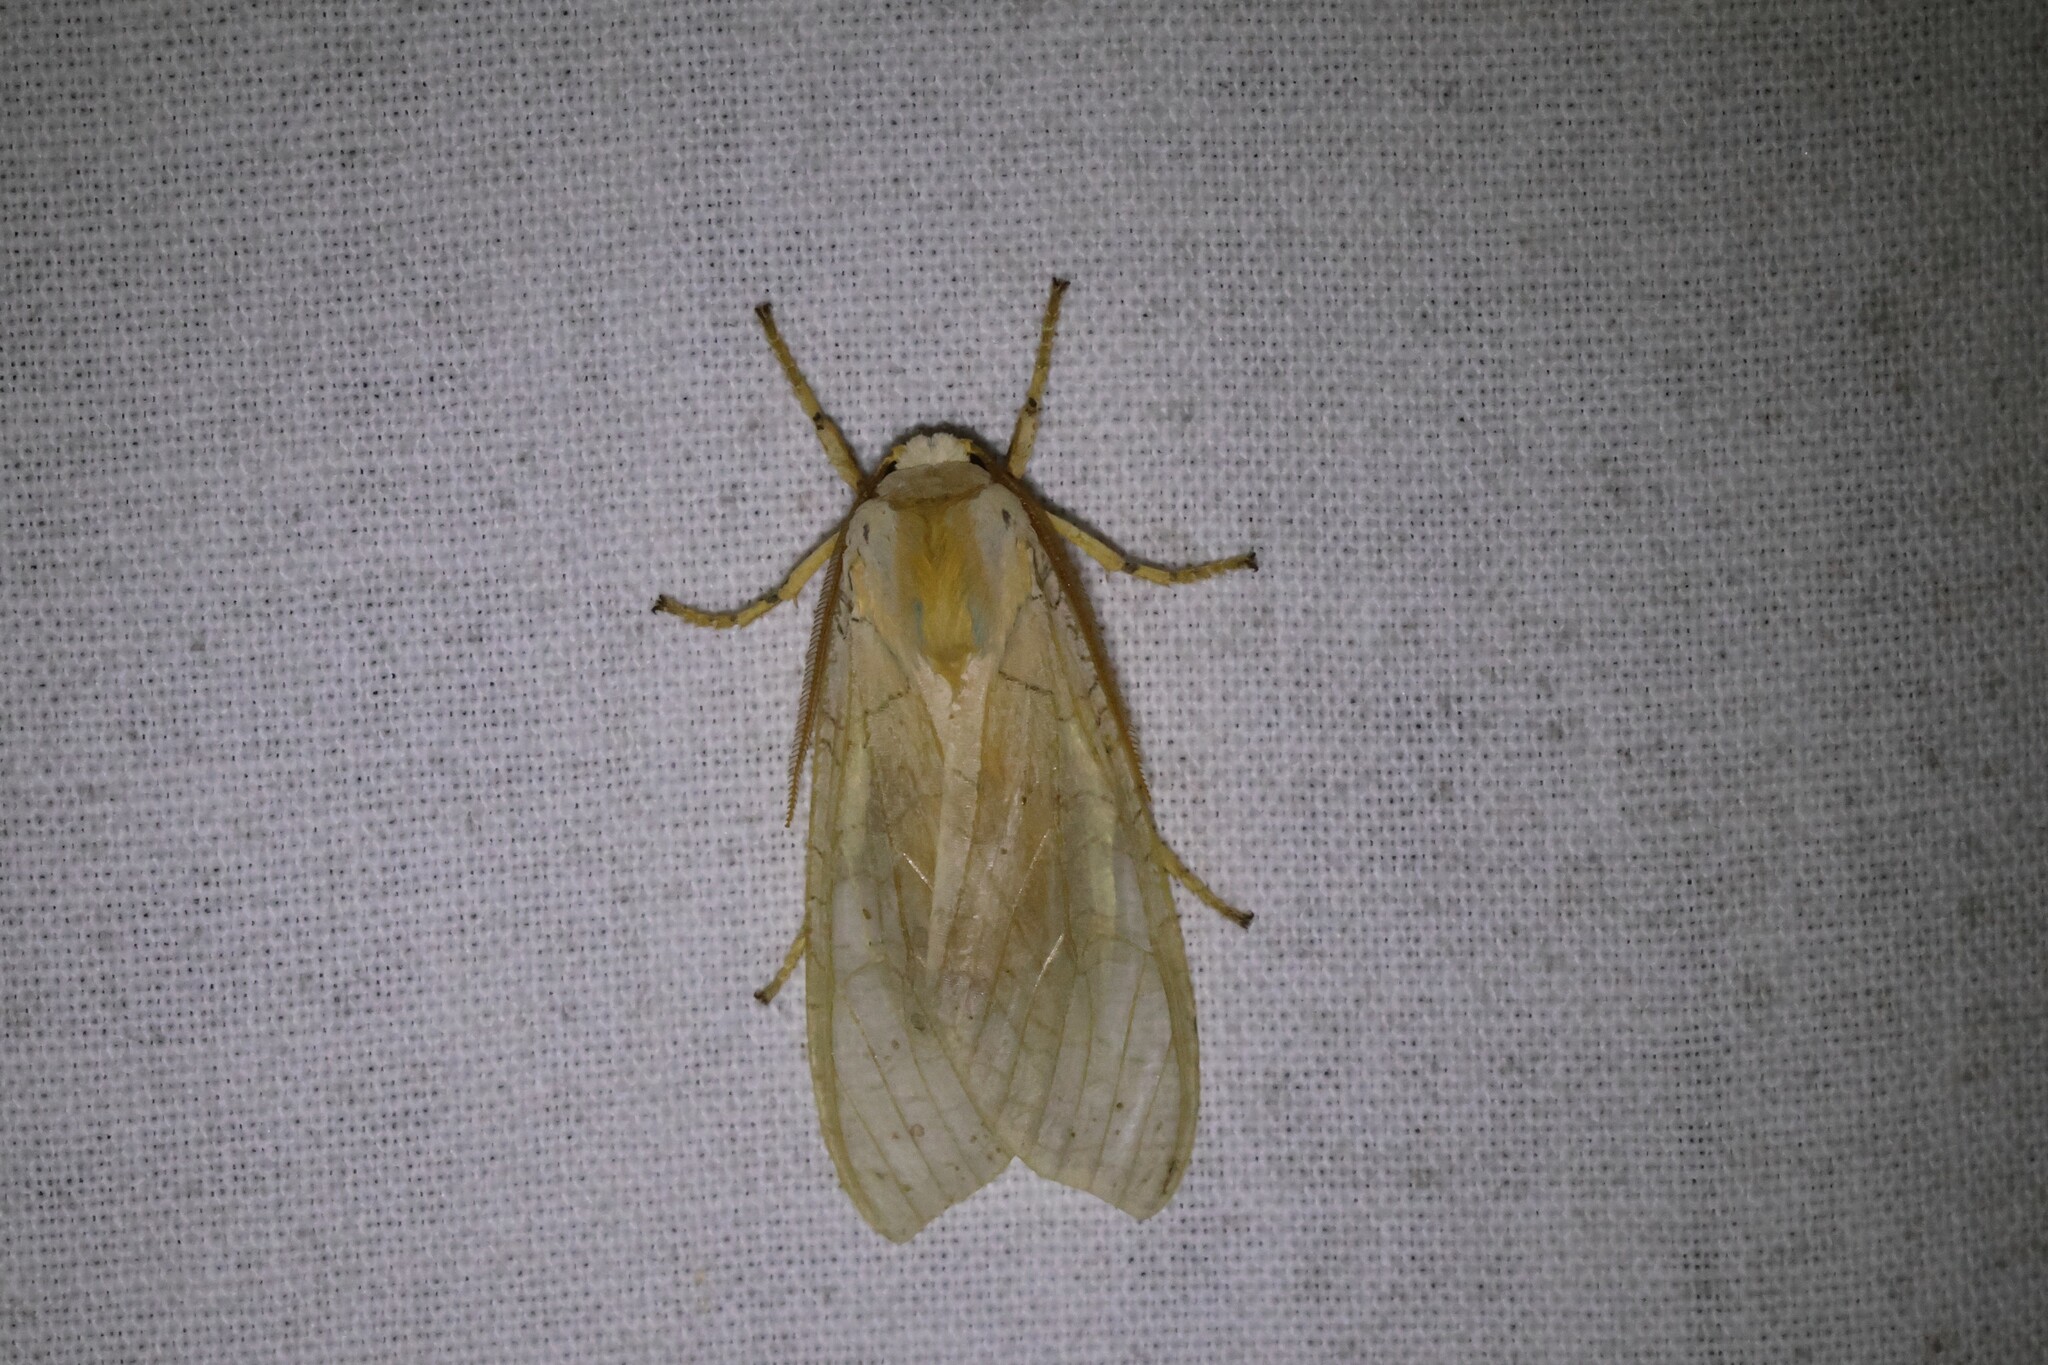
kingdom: Animalia
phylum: Arthropoda
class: Insecta
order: Lepidoptera
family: Erebidae
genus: Halysidota
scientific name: Halysidota tessellaris
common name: Banded tussock moth
